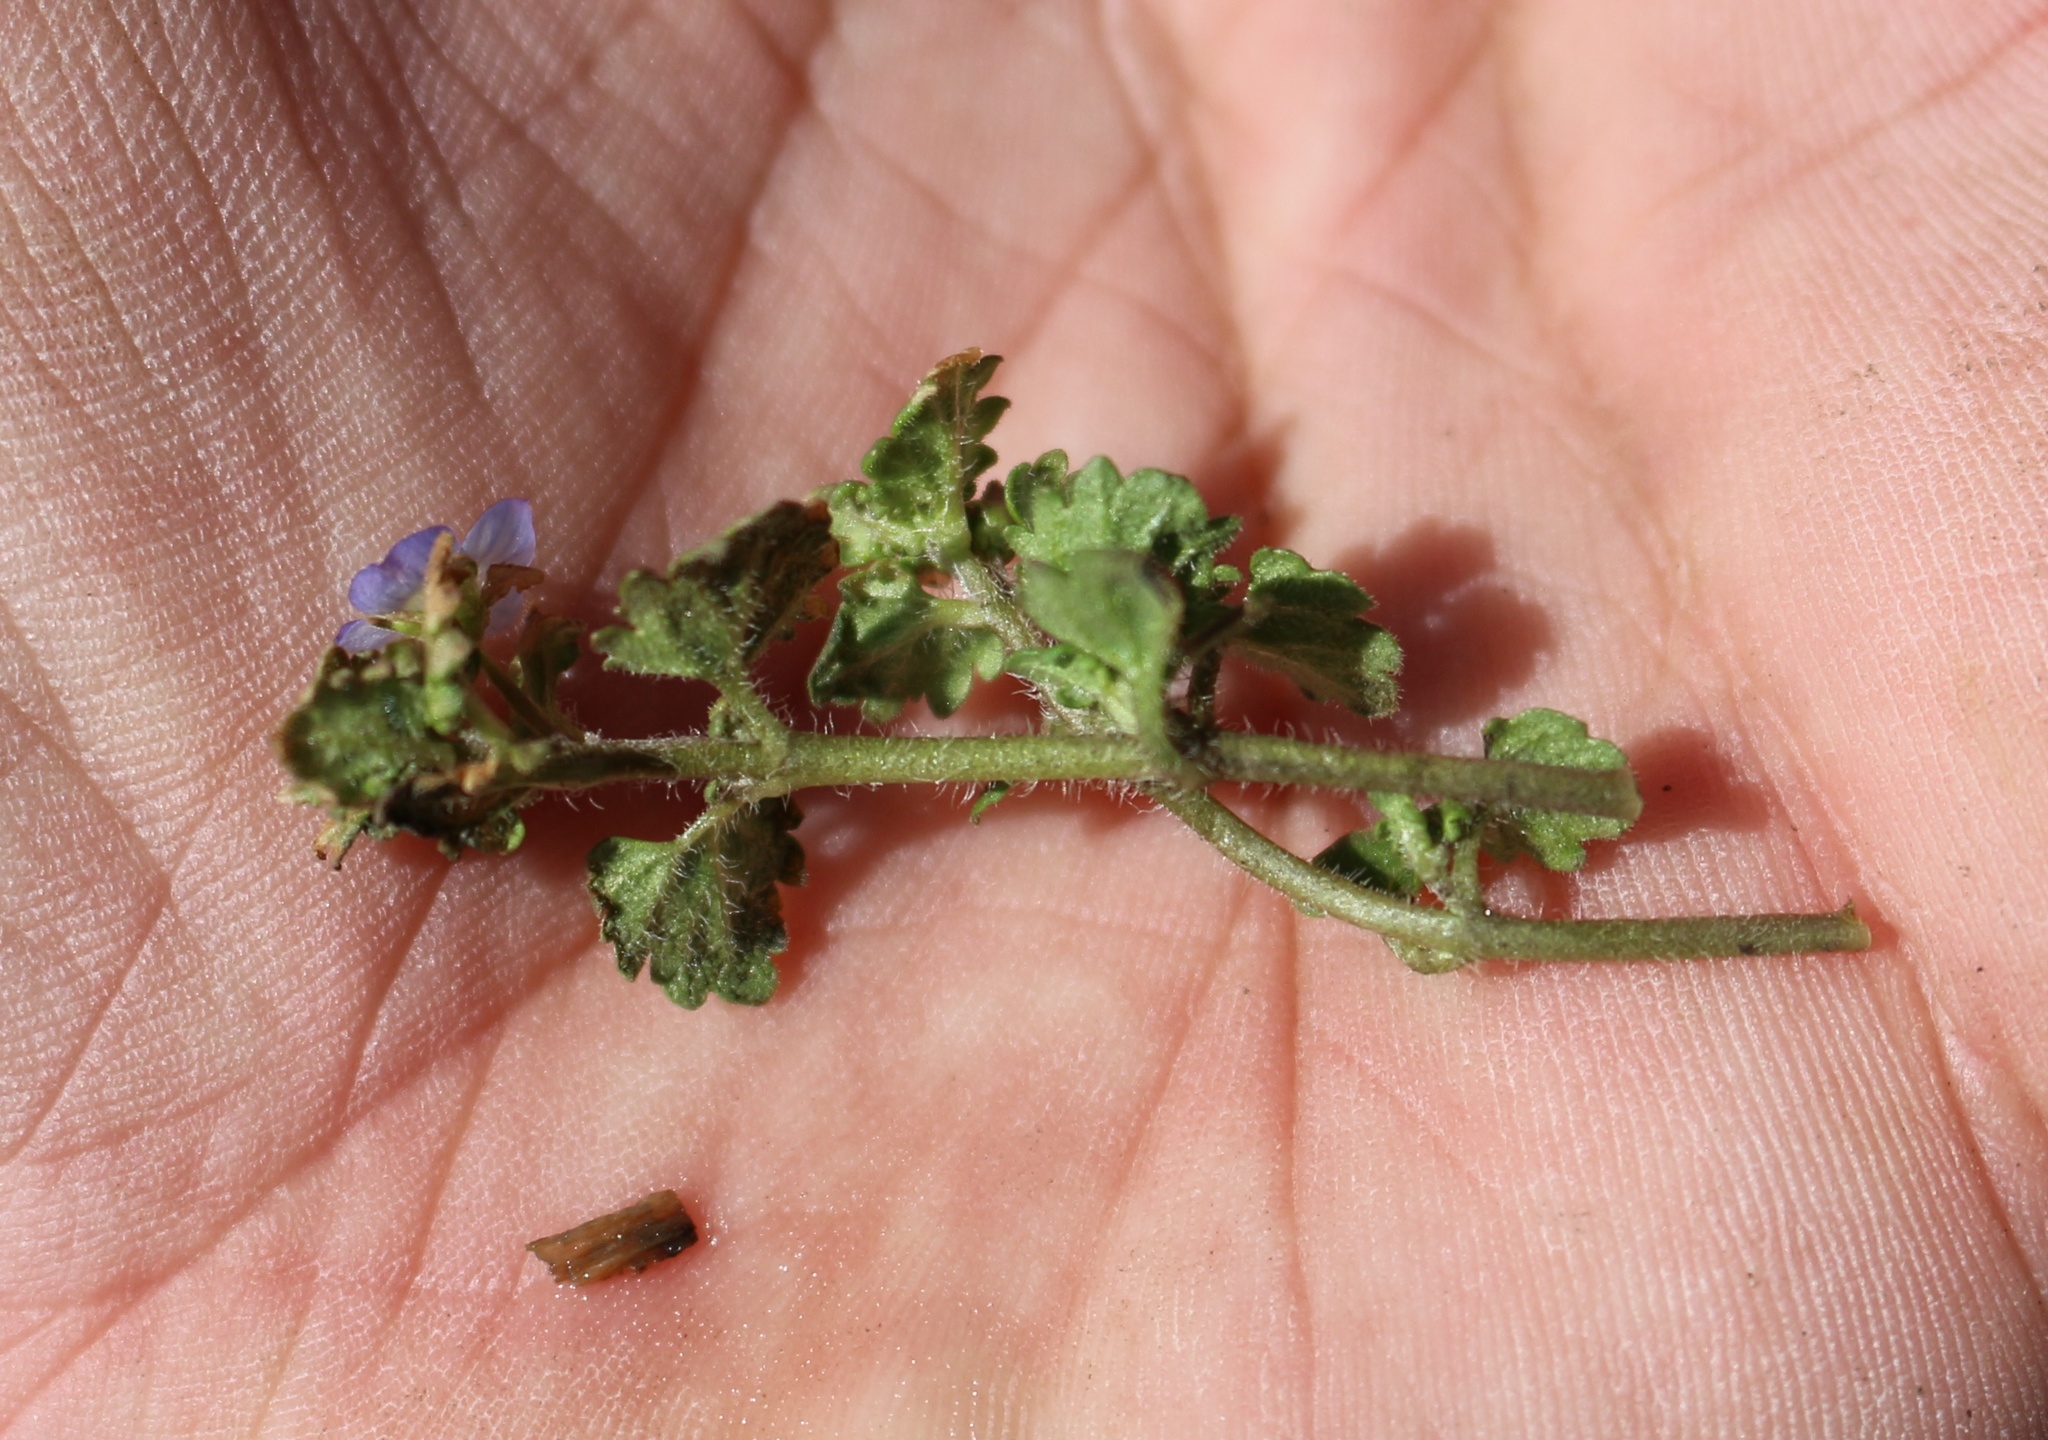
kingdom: Plantae
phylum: Tracheophyta
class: Magnoliopsida
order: Lamiales
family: Plantaginaceae
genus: Veronica
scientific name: Veronica polita
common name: Grey field-speedwell
